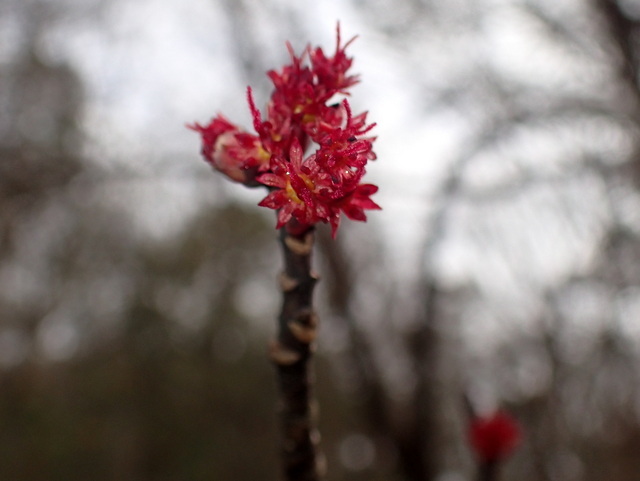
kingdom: Plantae
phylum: Tracheophyta
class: Magnoliopsida
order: Sapindales
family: Sapindaceae
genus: Acer
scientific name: Acer rubrum
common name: Red maple
